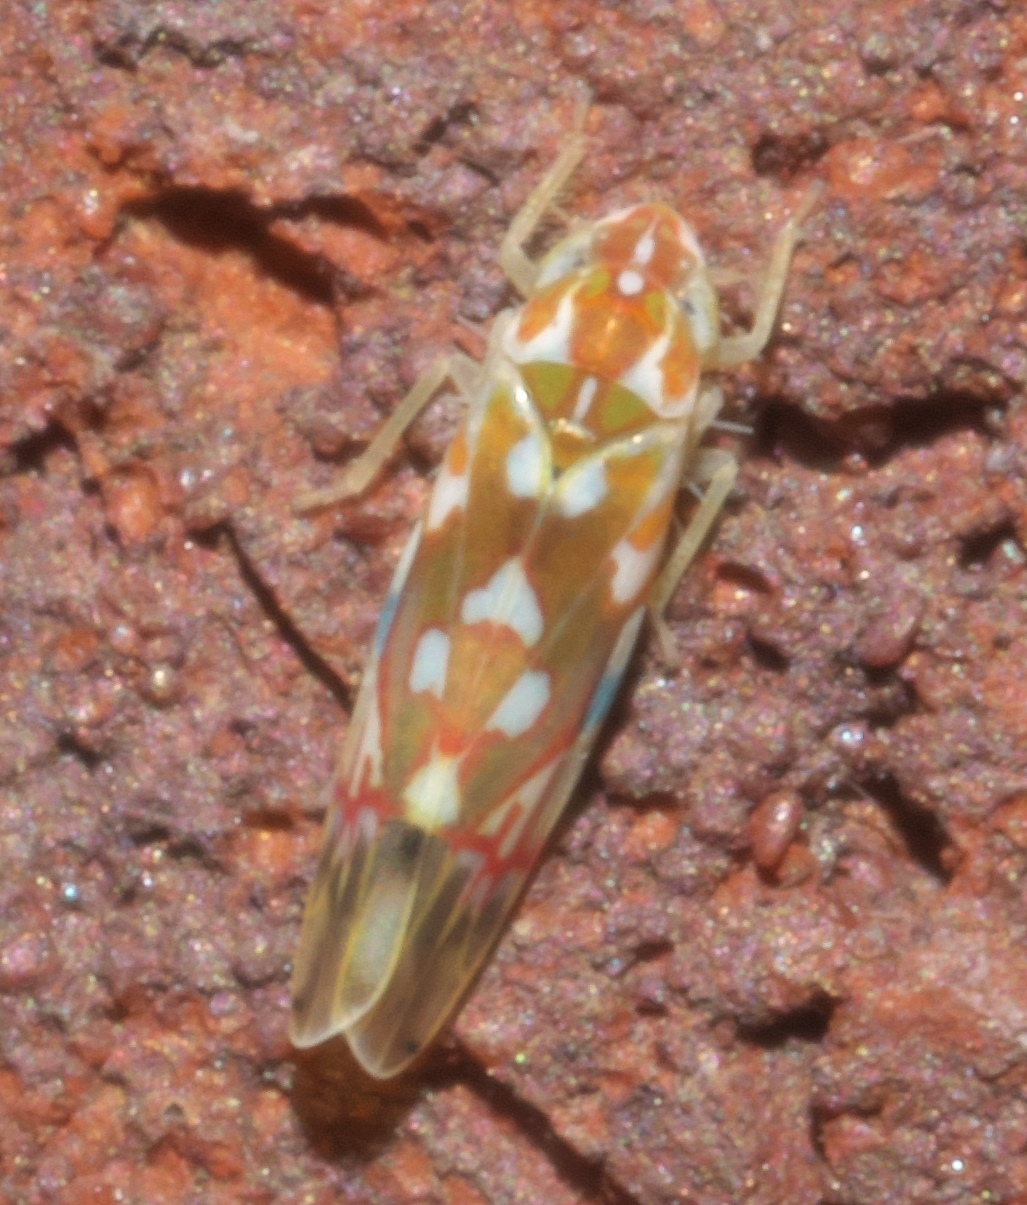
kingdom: Animalia
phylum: Arthropoda
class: Insecta
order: Hemiptera
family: Cicadellidae
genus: Erythroneura
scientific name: Erythroneura reflecta
